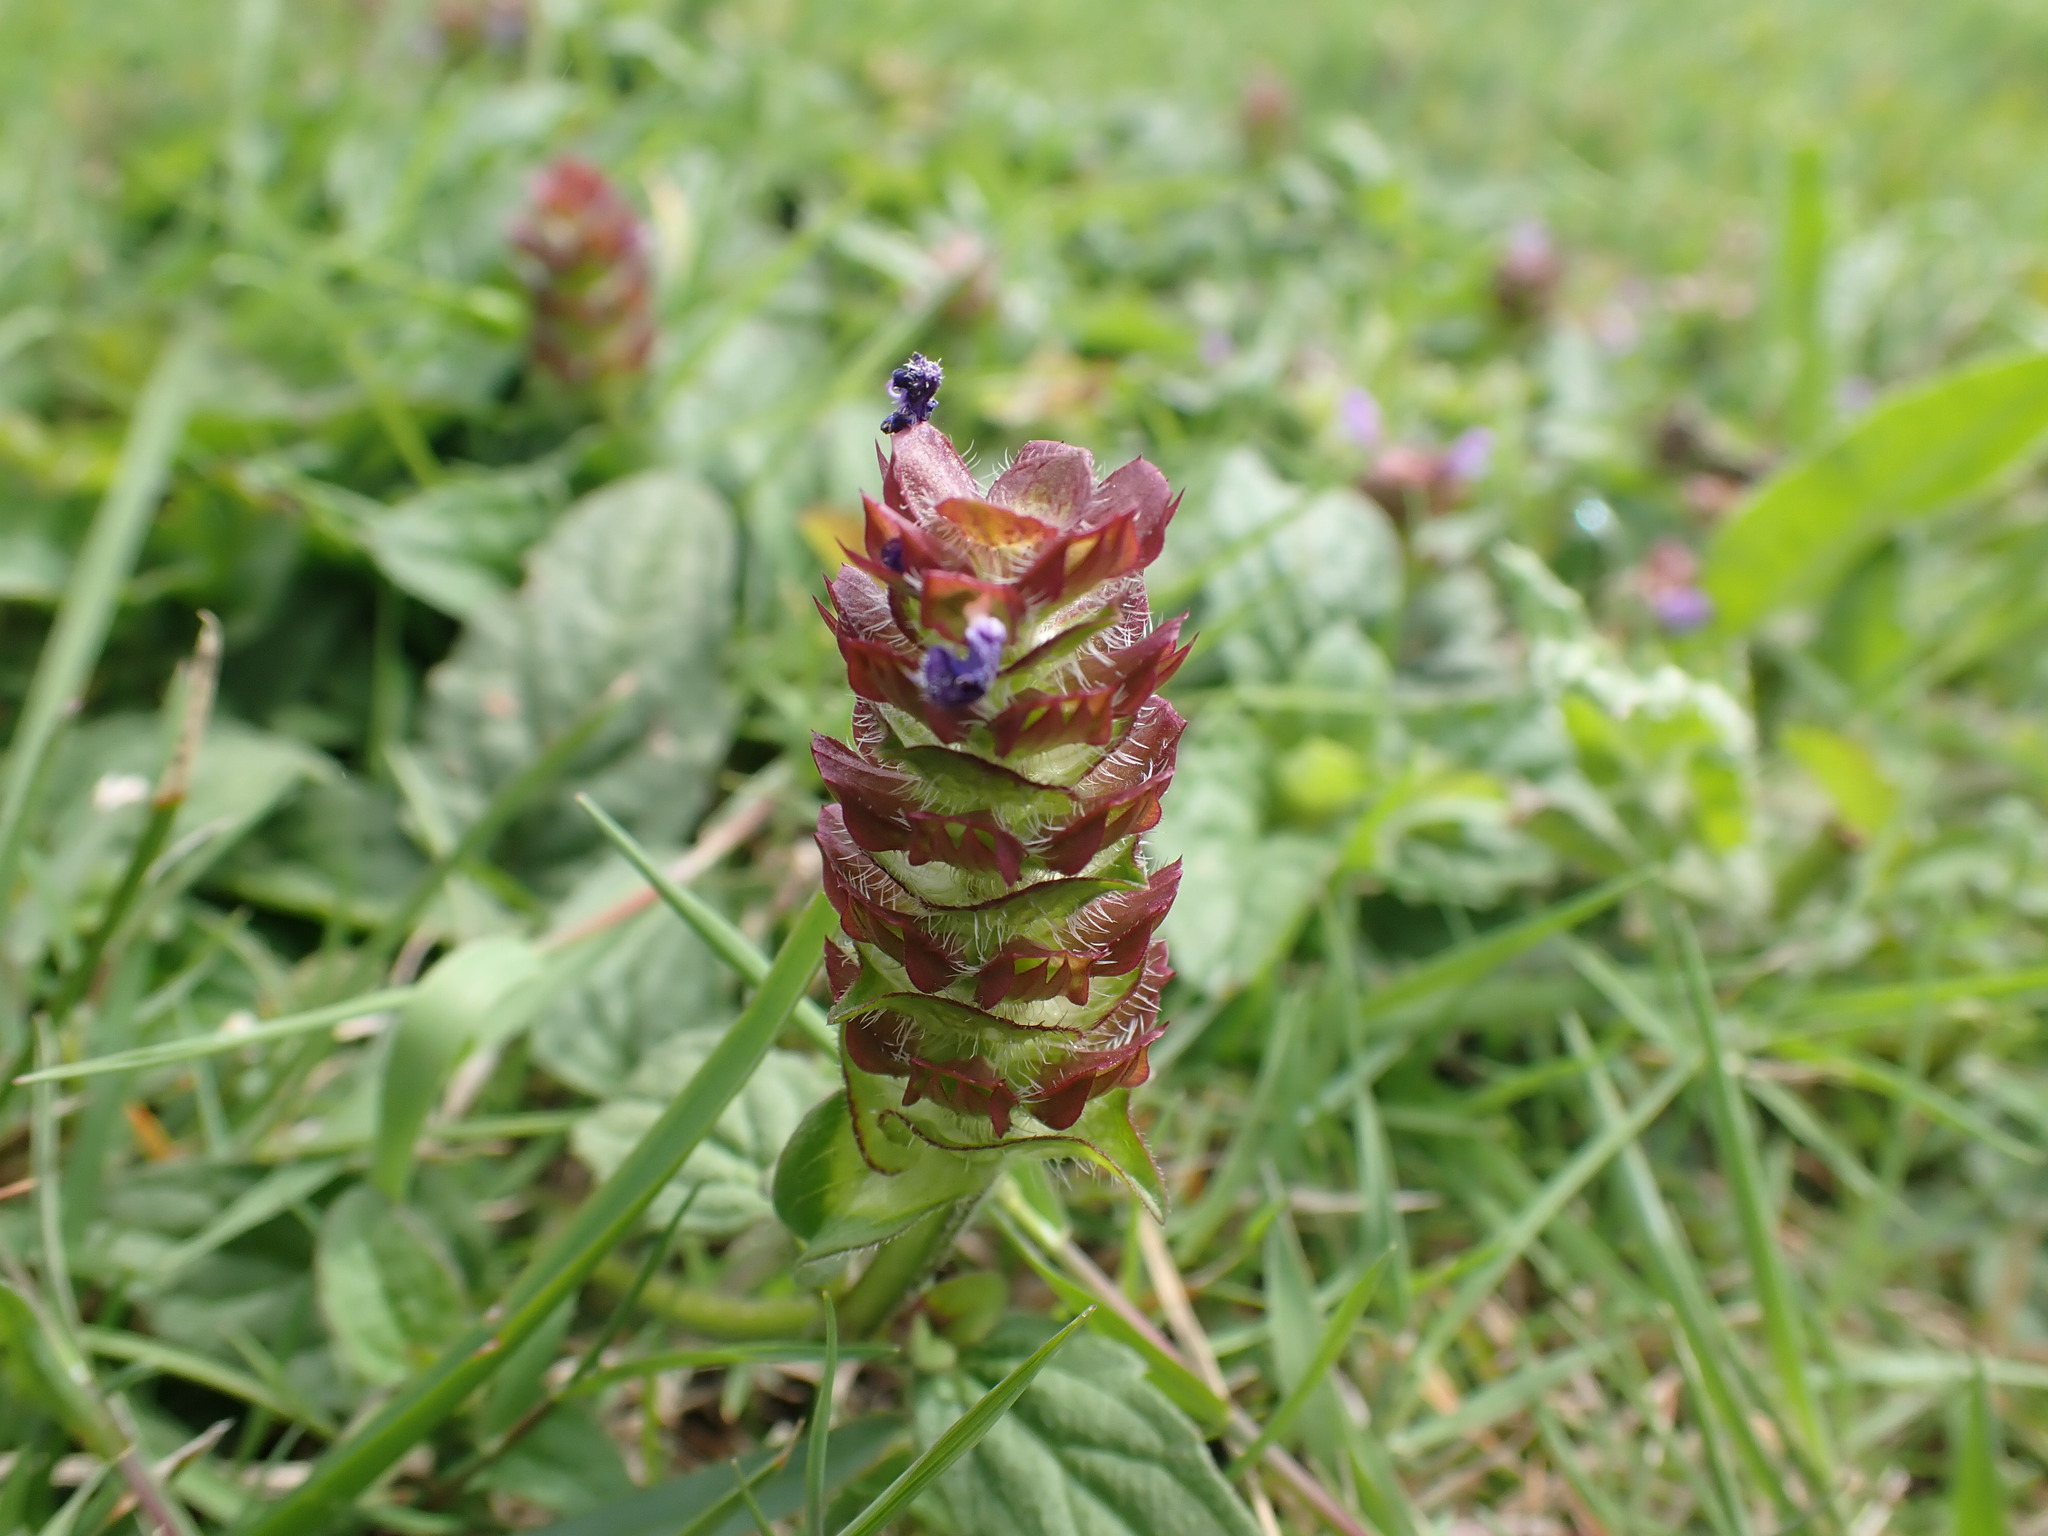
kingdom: Plantae
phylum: Tracheophyta
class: Magnoliopsida
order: Lamiales
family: Lamiaceae
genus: Prunella
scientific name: Prunella vulgaris
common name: Heal-all
